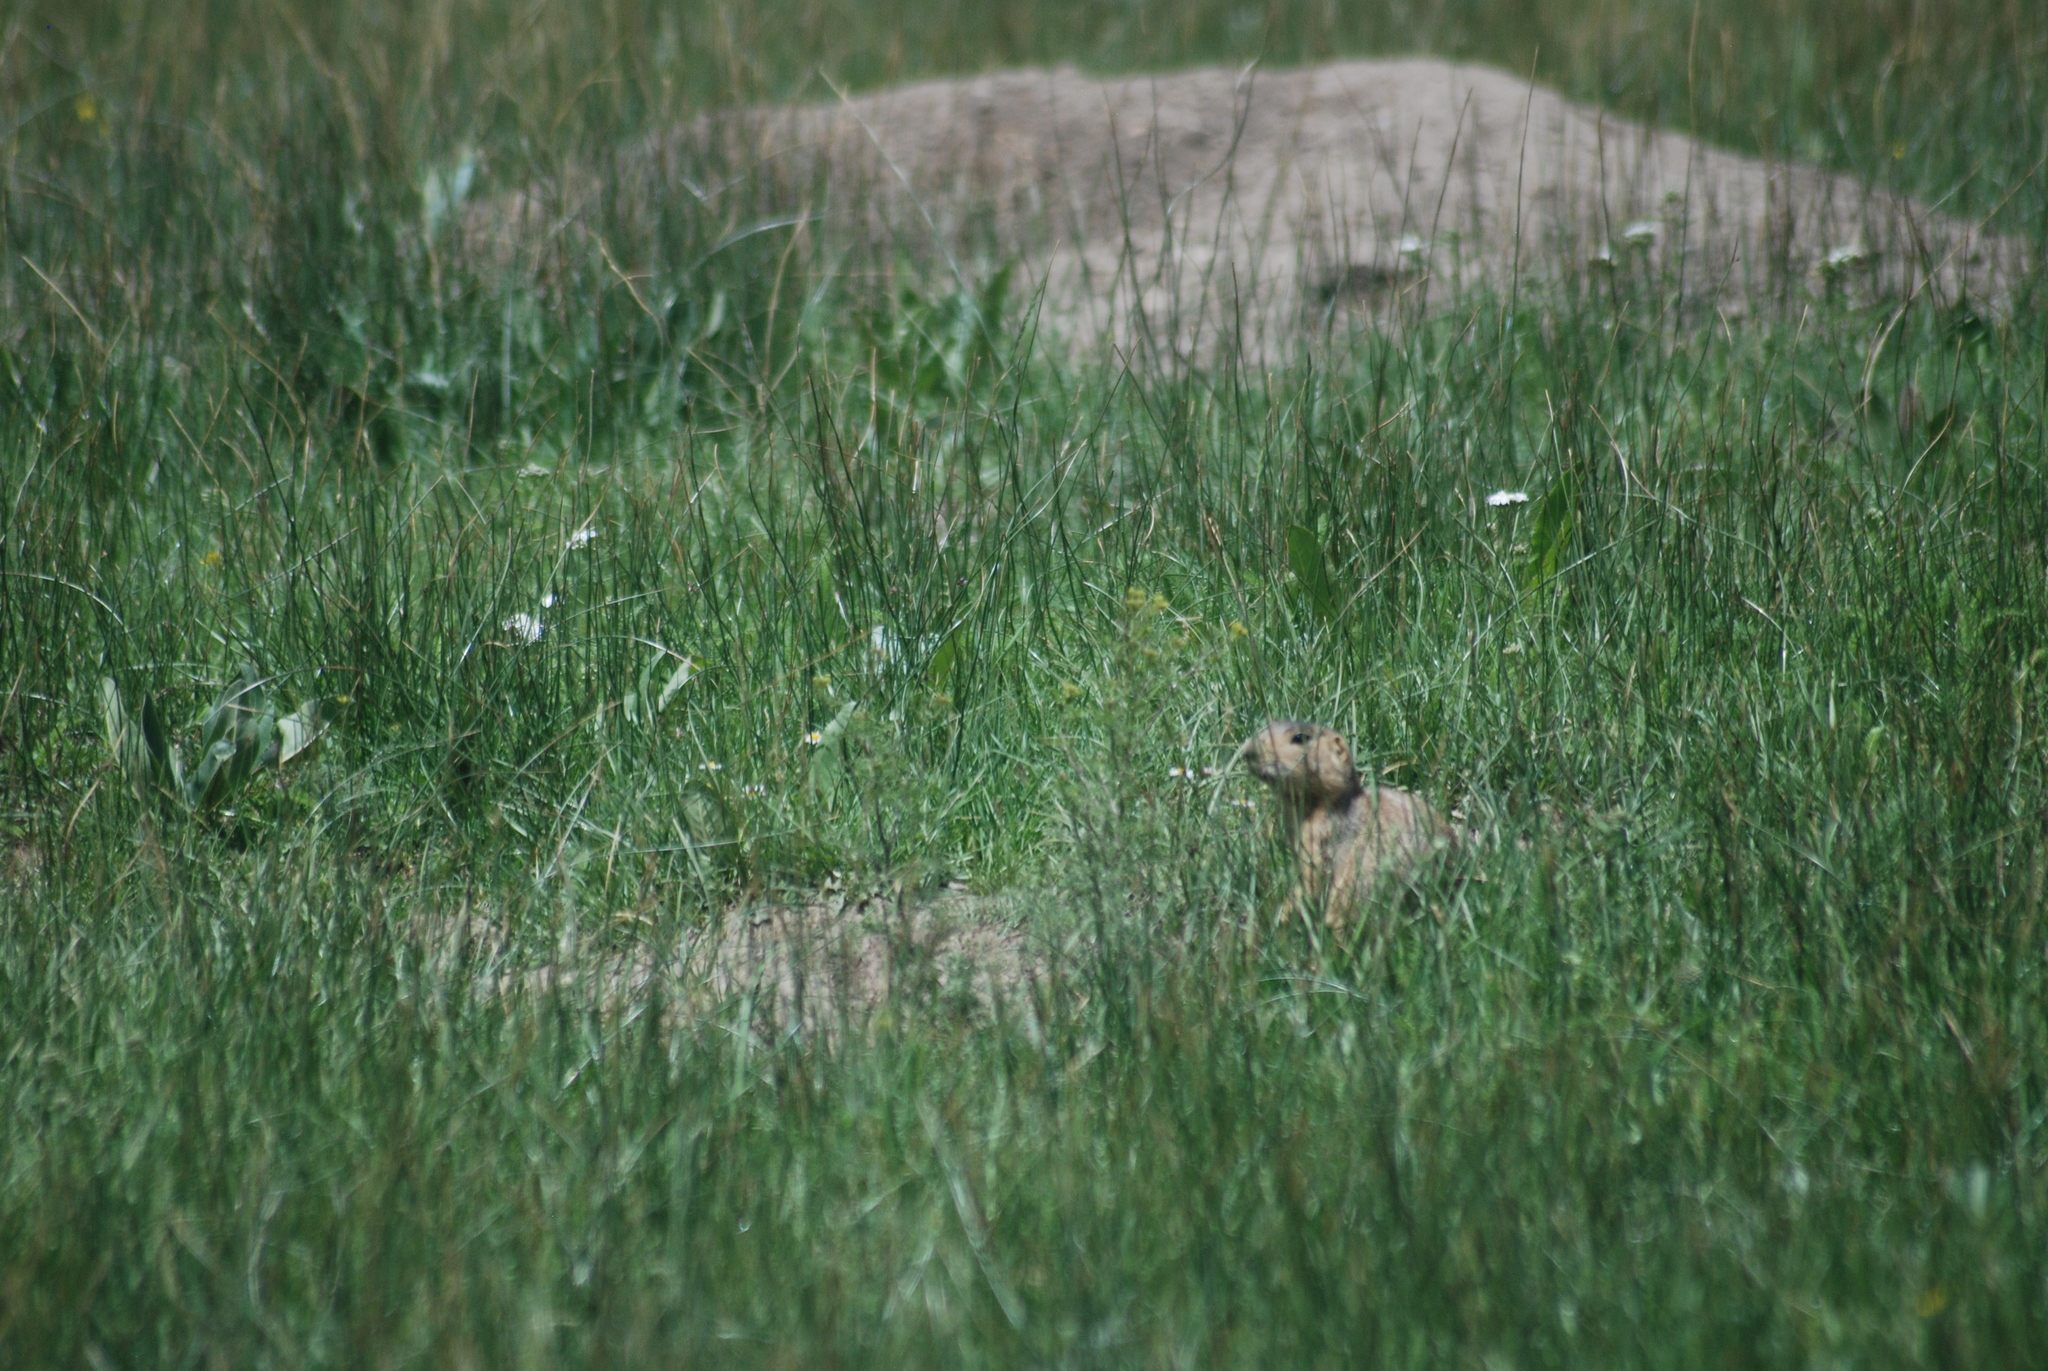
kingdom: Animalia
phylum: Chordata
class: Mammalia
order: Rodentia
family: Sciuridae
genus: Cynomys
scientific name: Cynomys gunnisoni
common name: Gunnison's prairie dog
